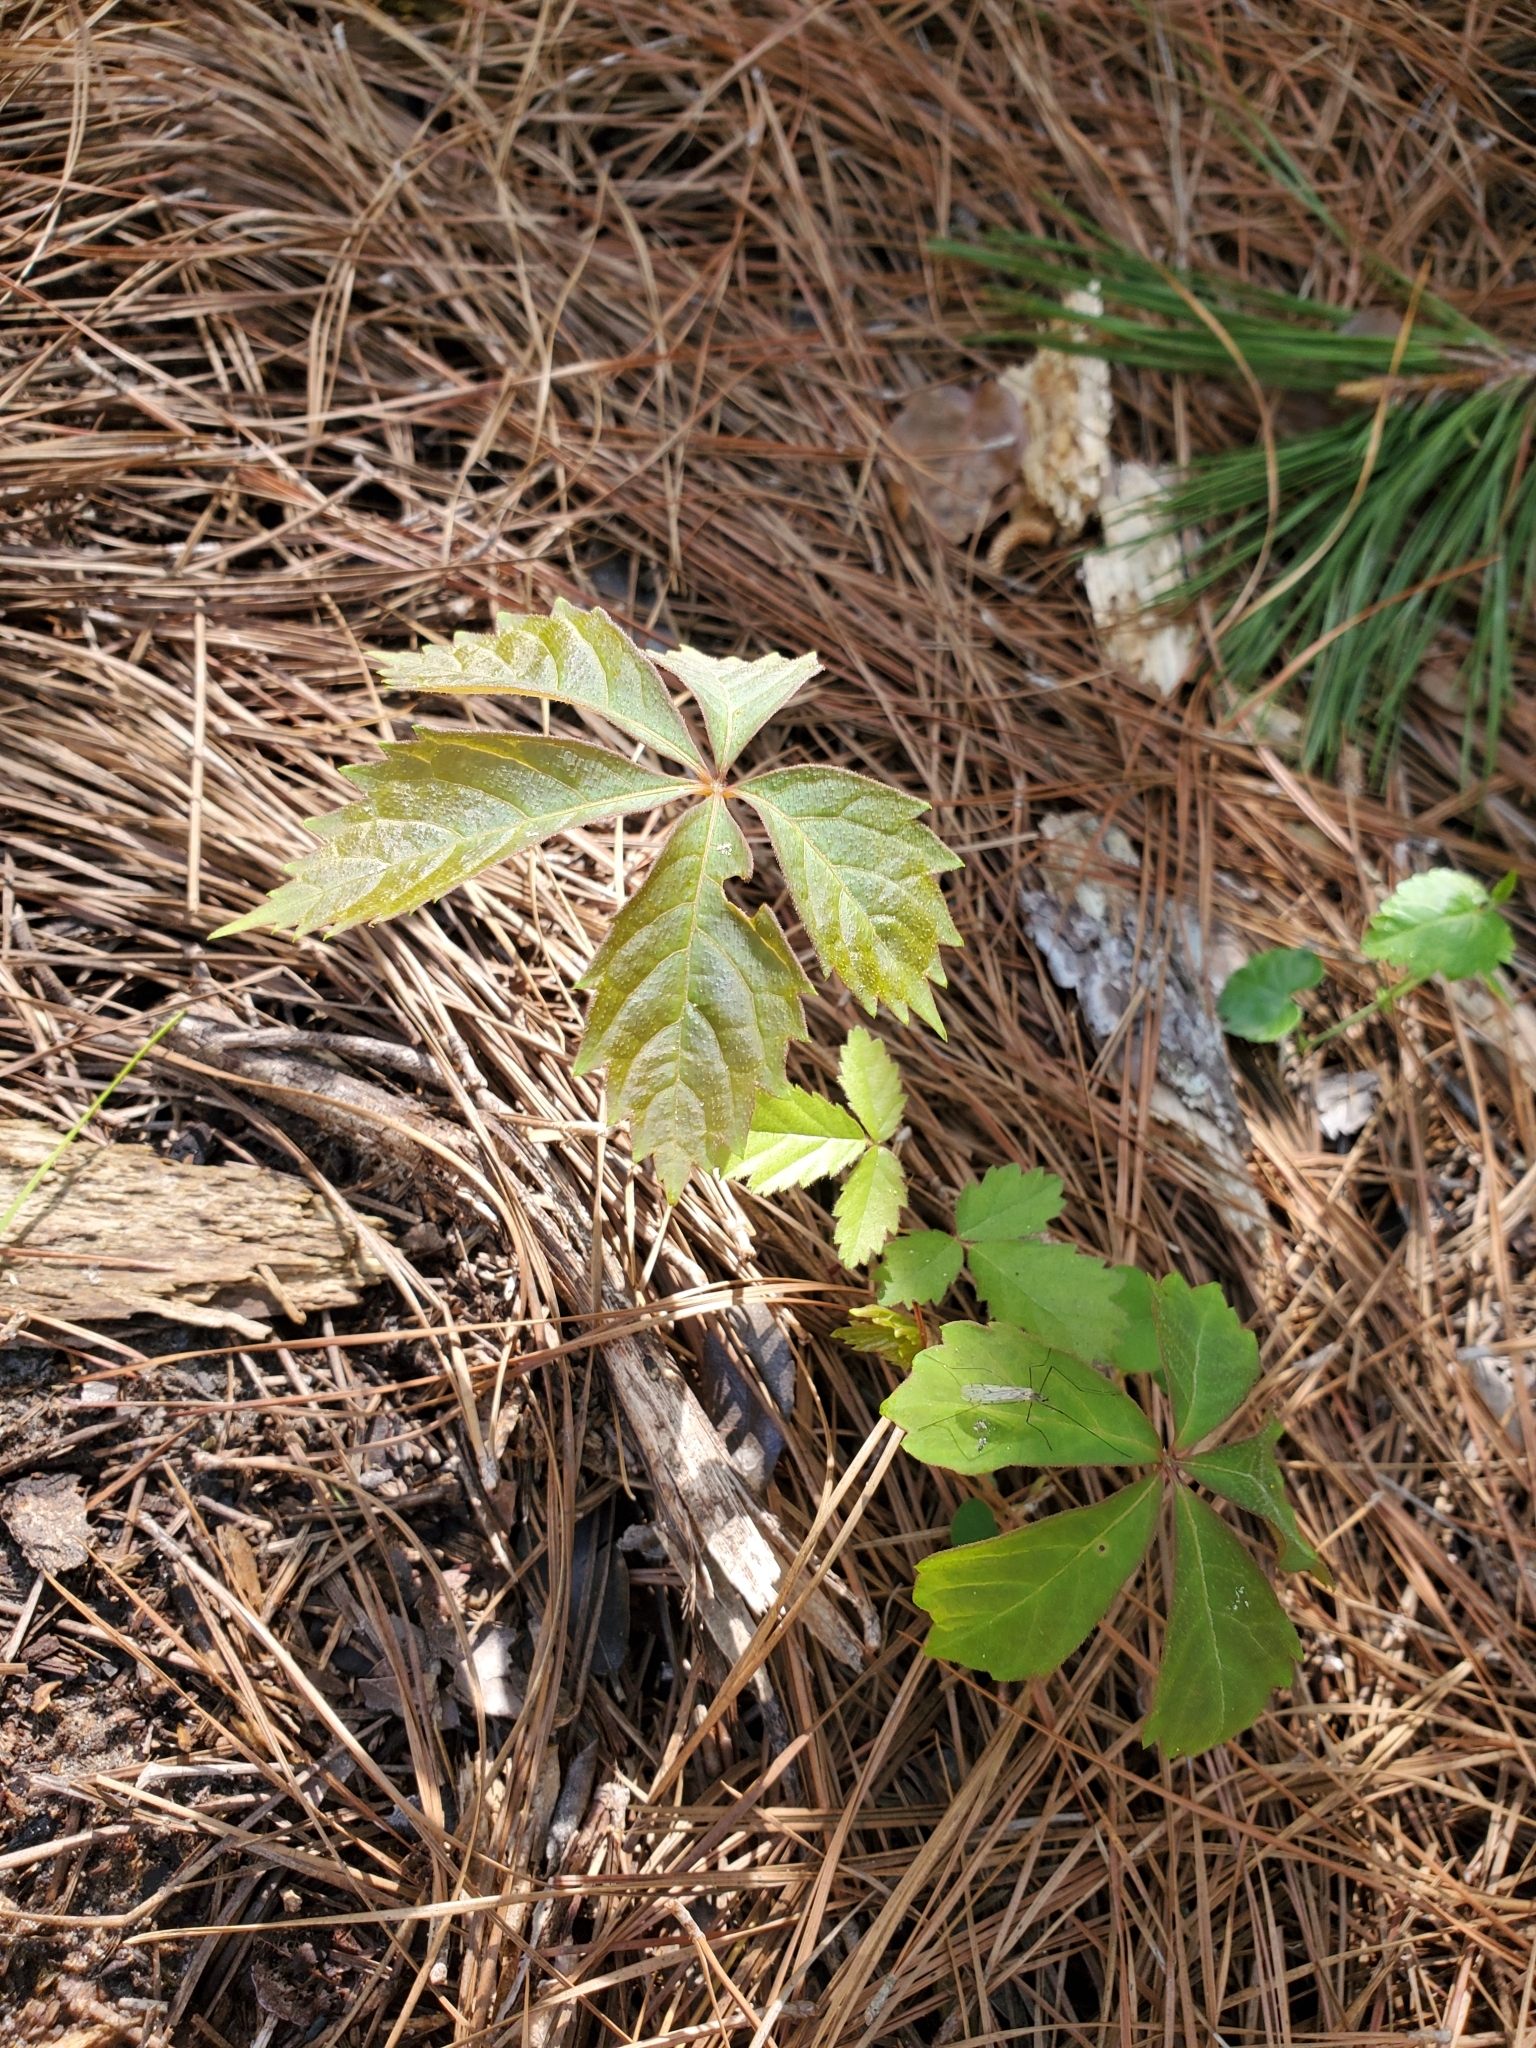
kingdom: Plantae
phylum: Tracheophyta
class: Magnoliopsida
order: Vitales
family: Vitaceae
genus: Parthenocissus
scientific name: Parthenocissus quinquefolia
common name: Virginia-creeper
